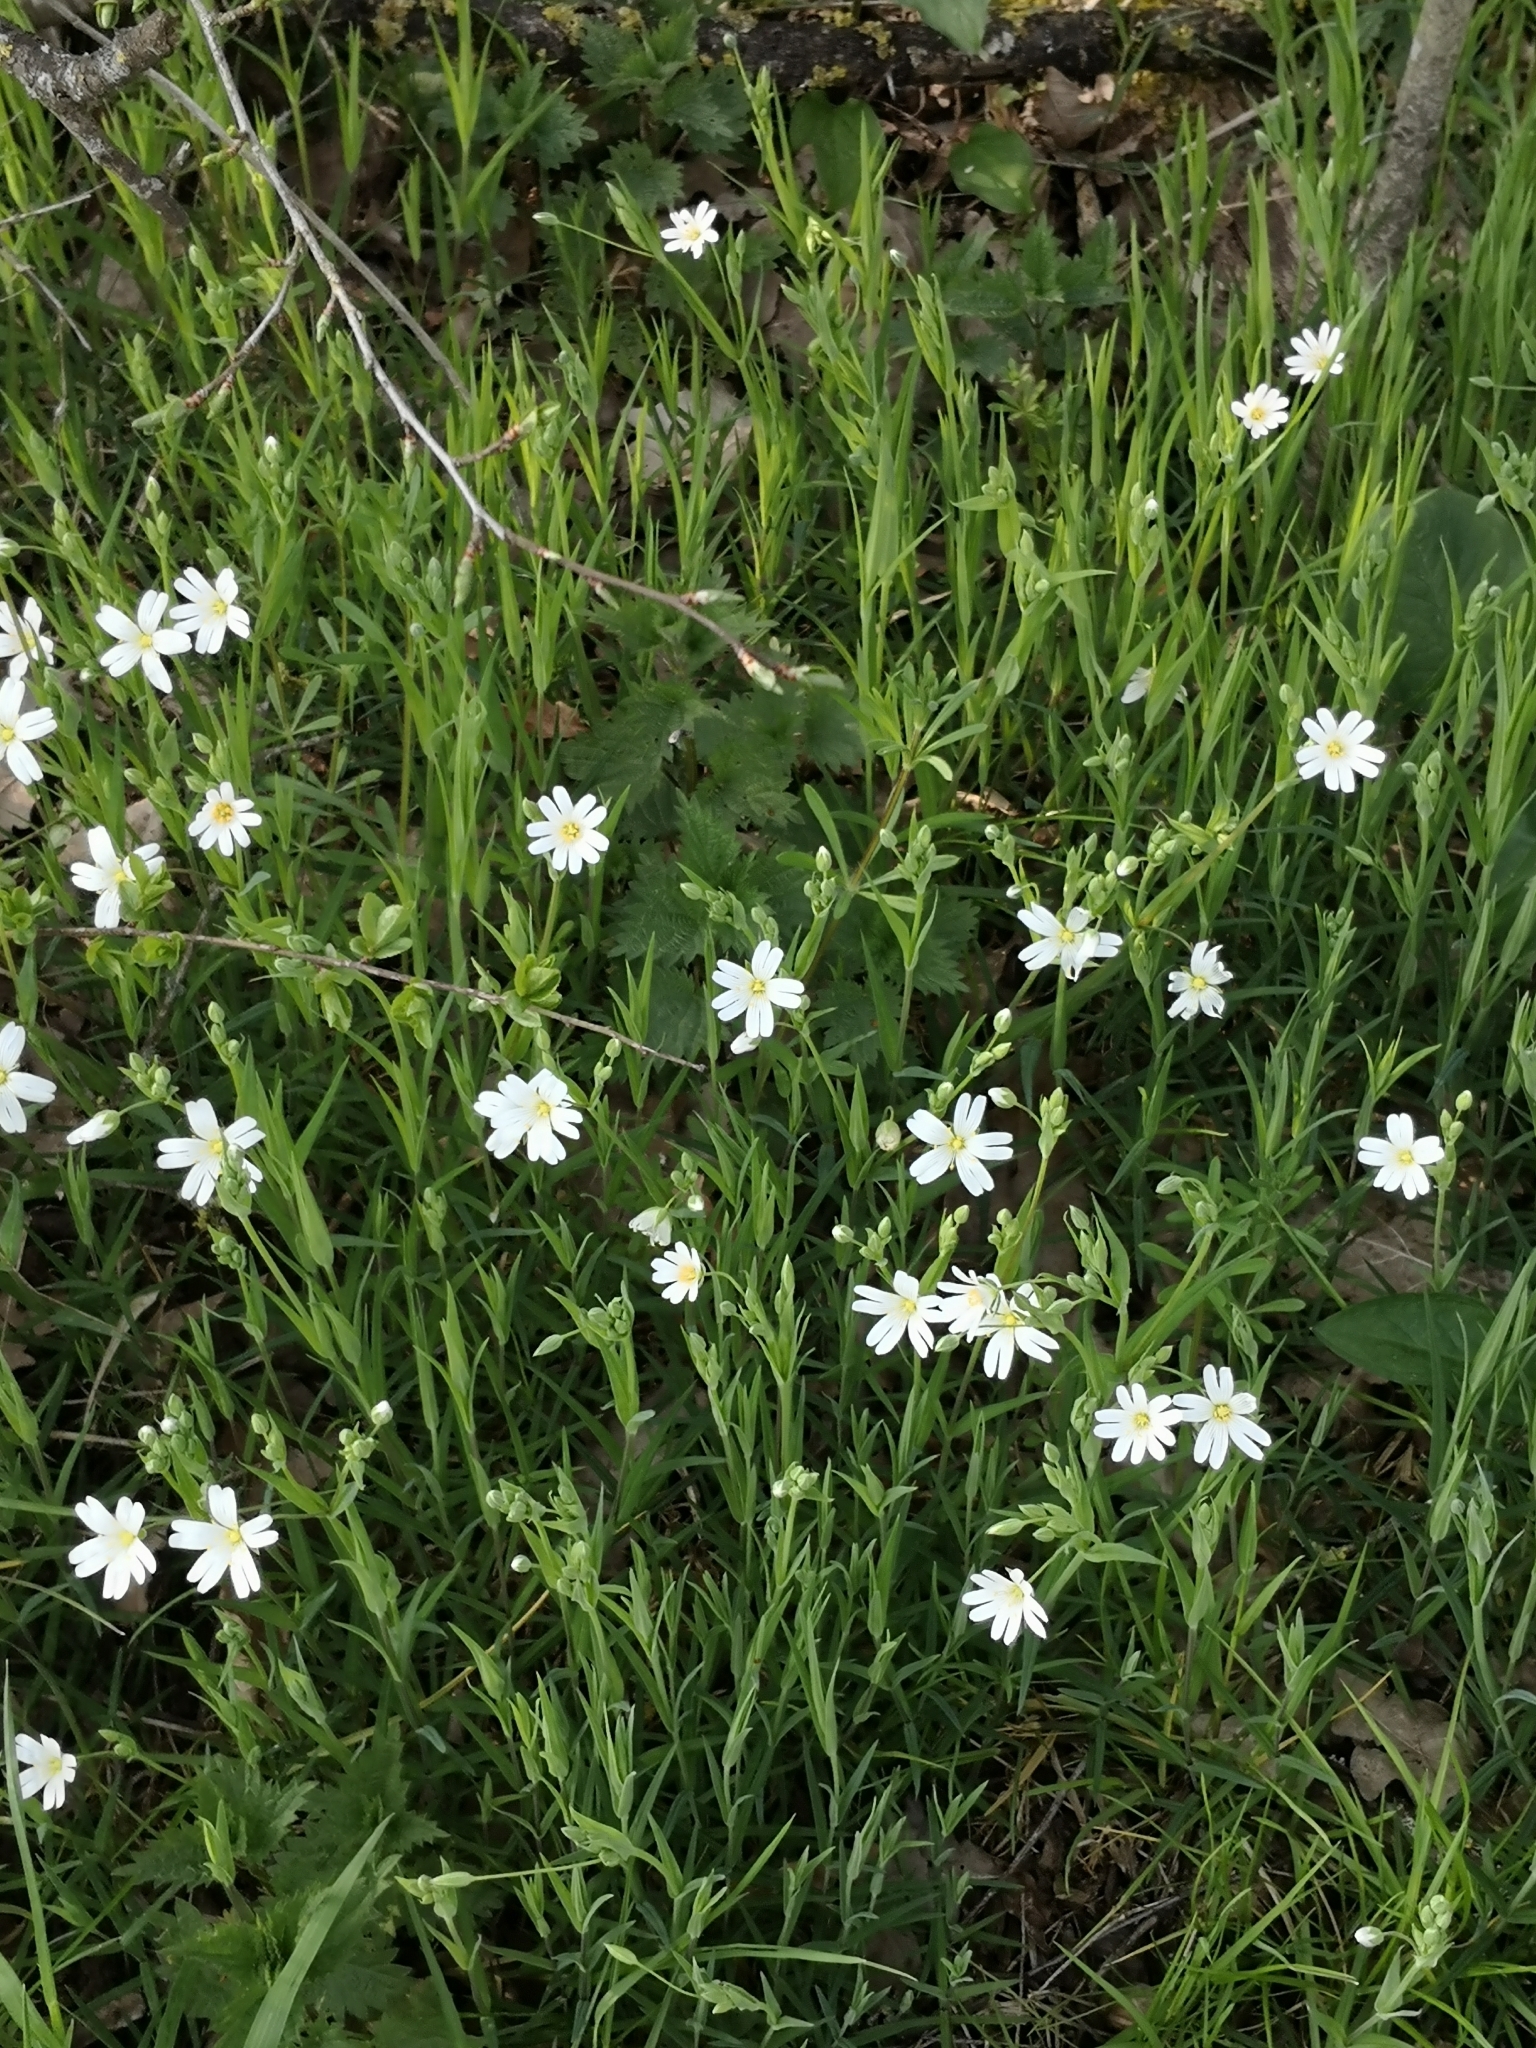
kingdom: Plantae
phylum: Tracheophyta
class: Magnoliopsida
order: Caryophyllales
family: Caryophyllaceae
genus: Rabelera
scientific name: Rabelera holostea
